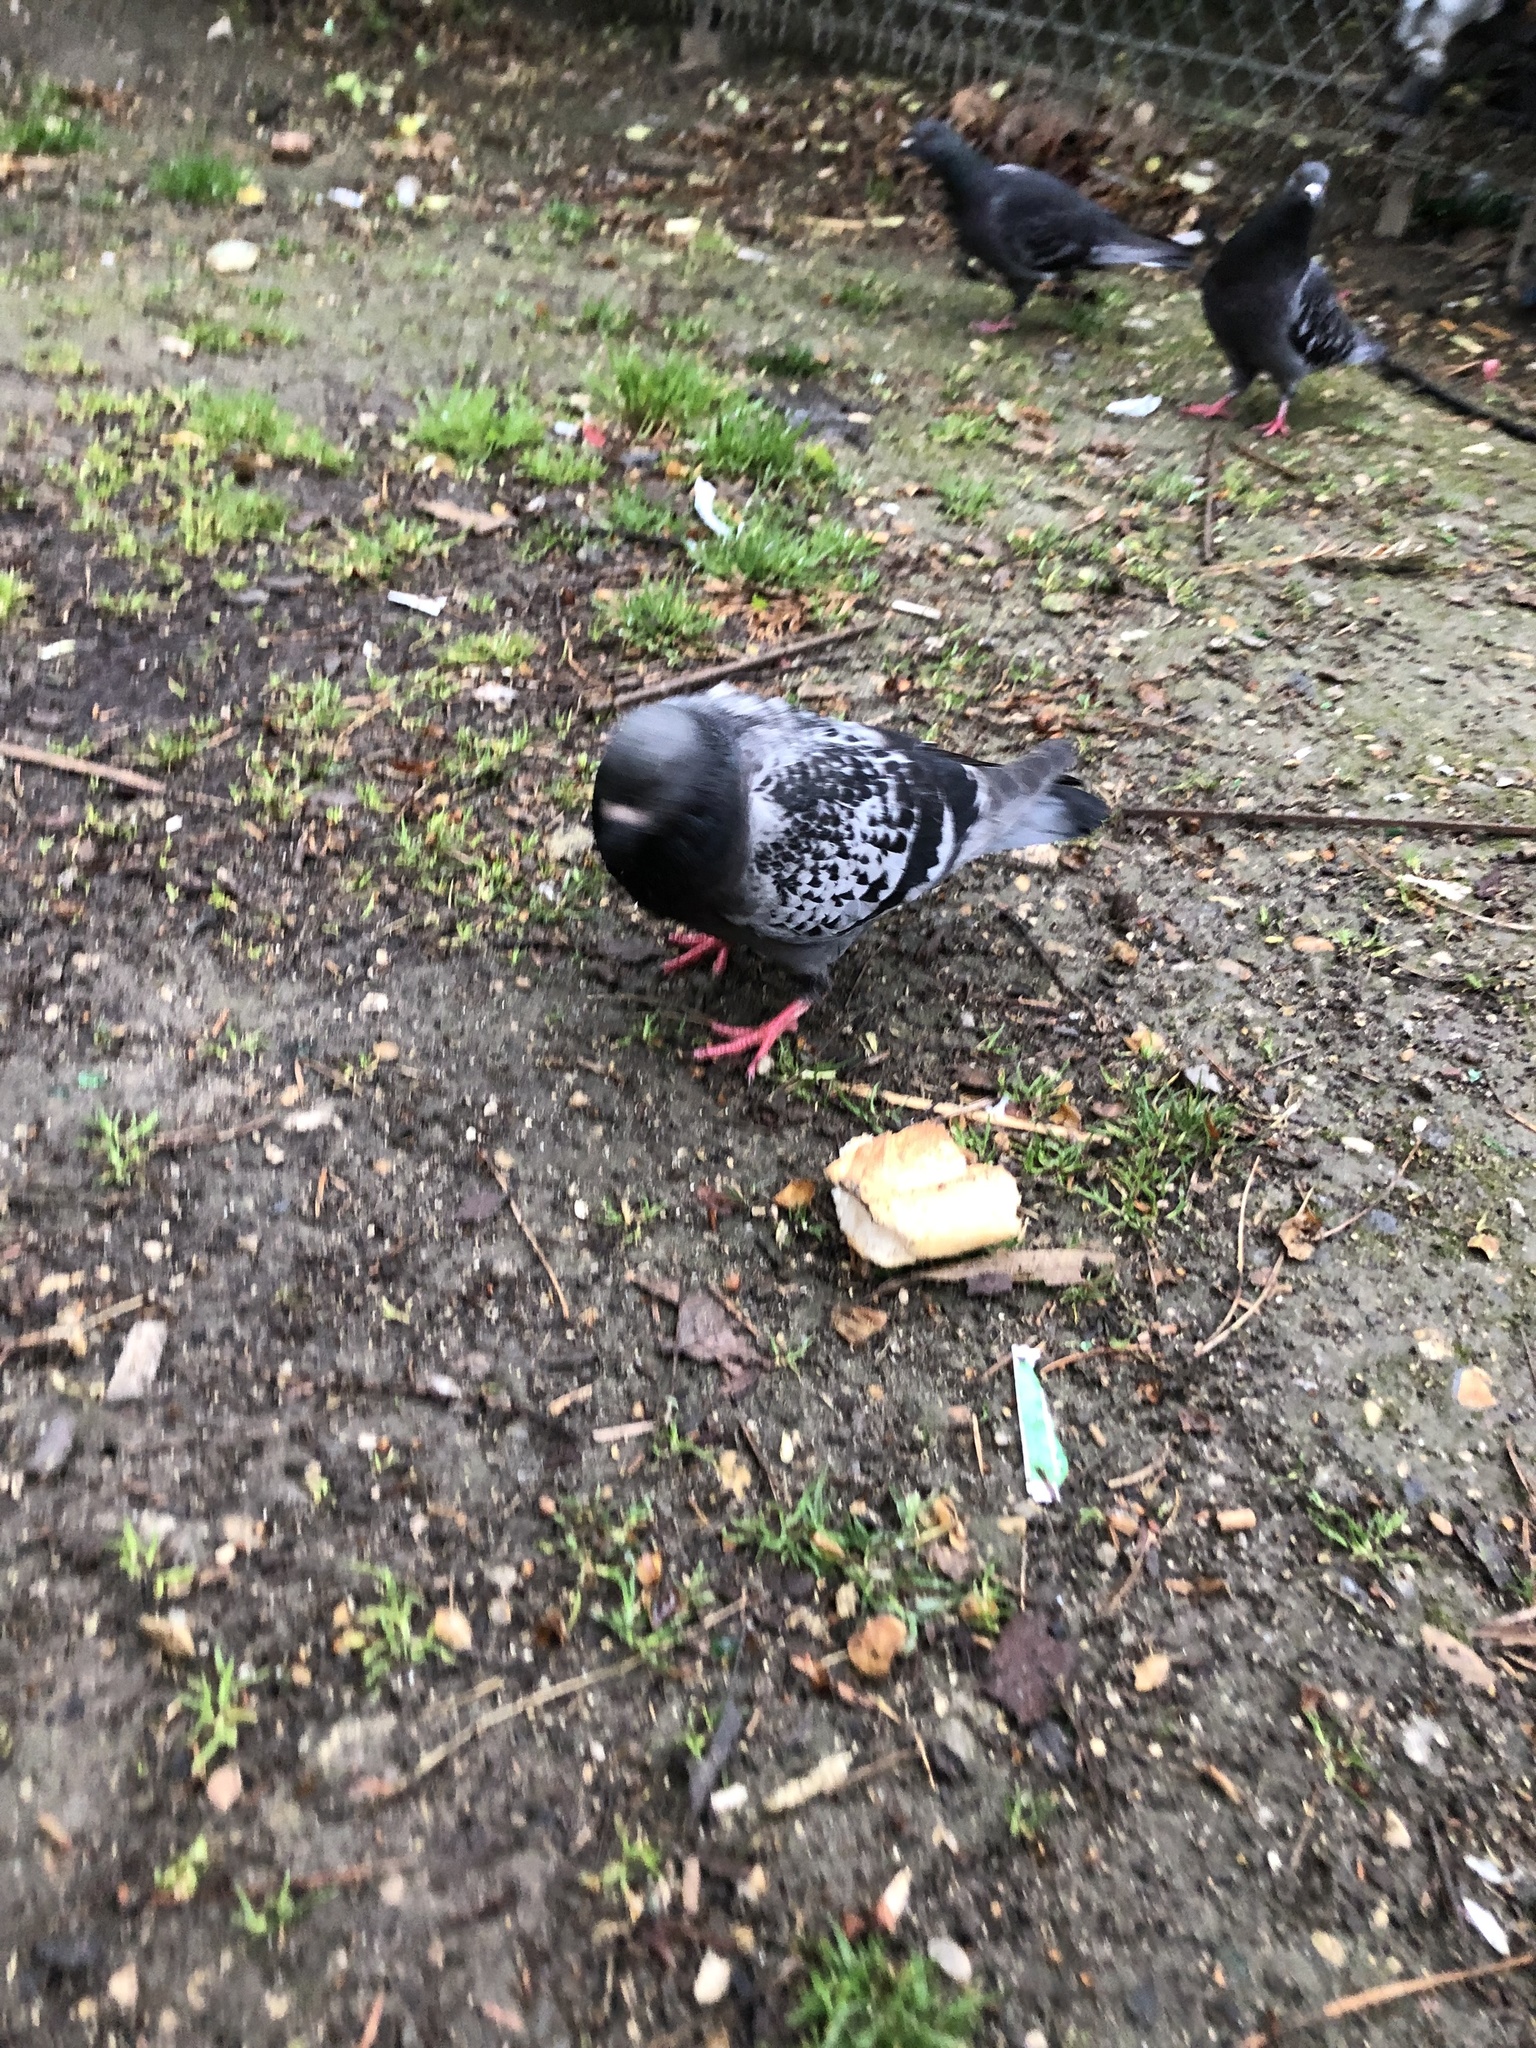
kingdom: Animalia
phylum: Chordata
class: Aves
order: Columbiformes
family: Columbidae
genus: Columba
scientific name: Columba livia
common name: Rock pigeon
